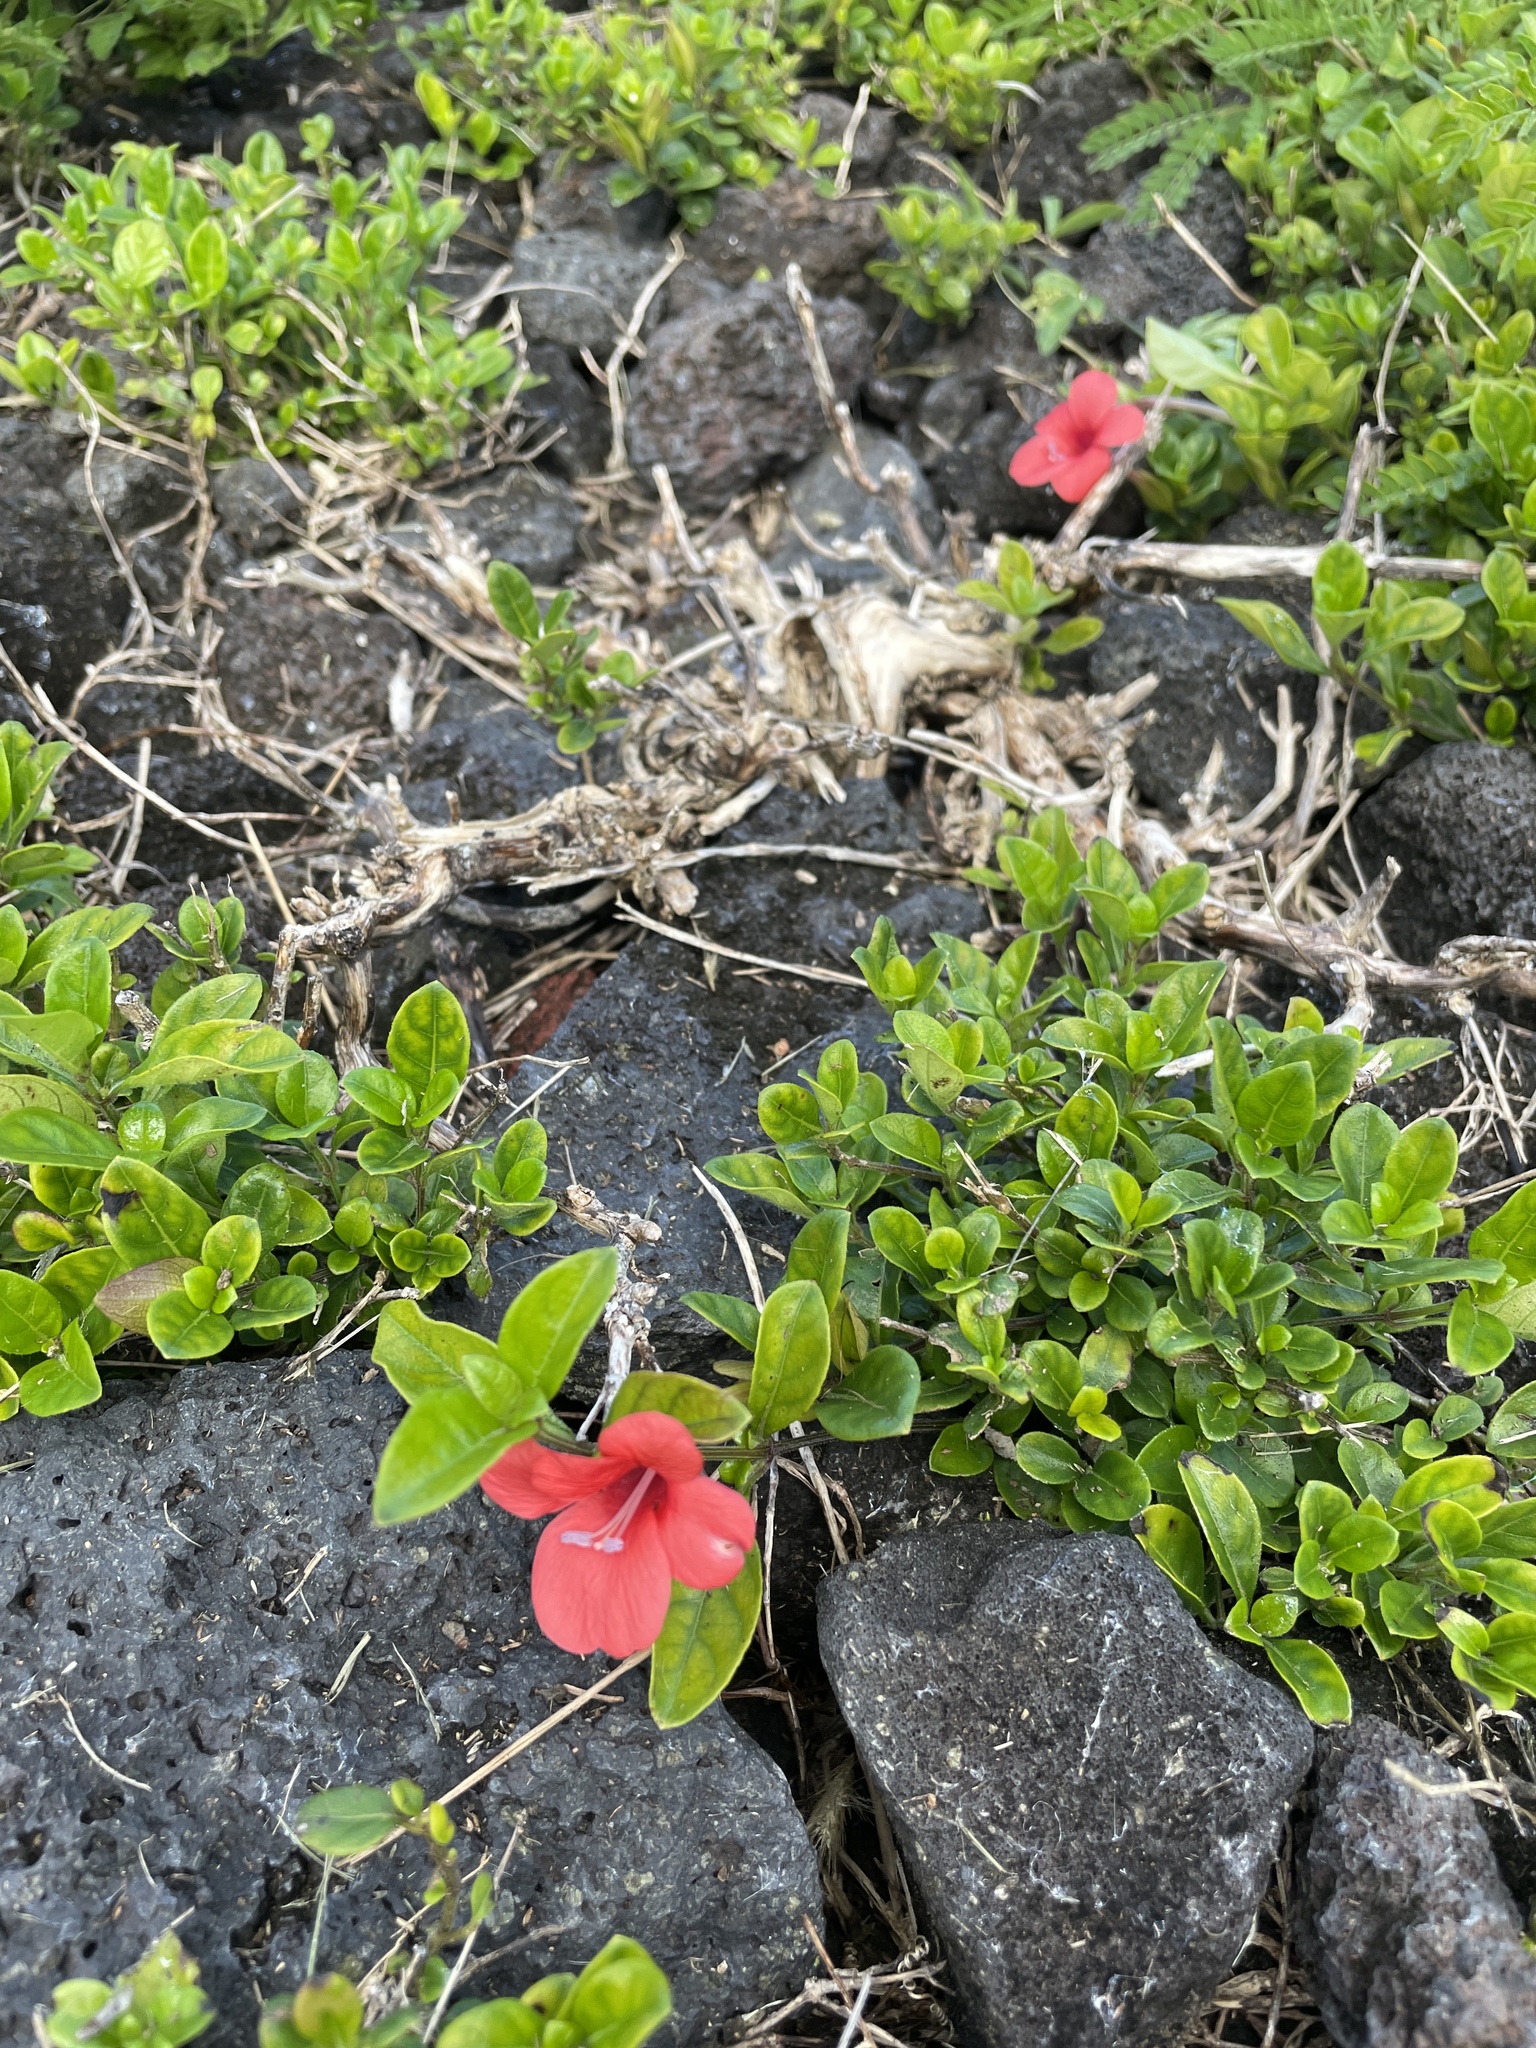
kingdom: Plantae
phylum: Tracheophyta
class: Magnoliopsida
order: Lamiales
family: Acanthaceae
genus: Barleria
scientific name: Barleria repens
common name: Pink-ruellia
